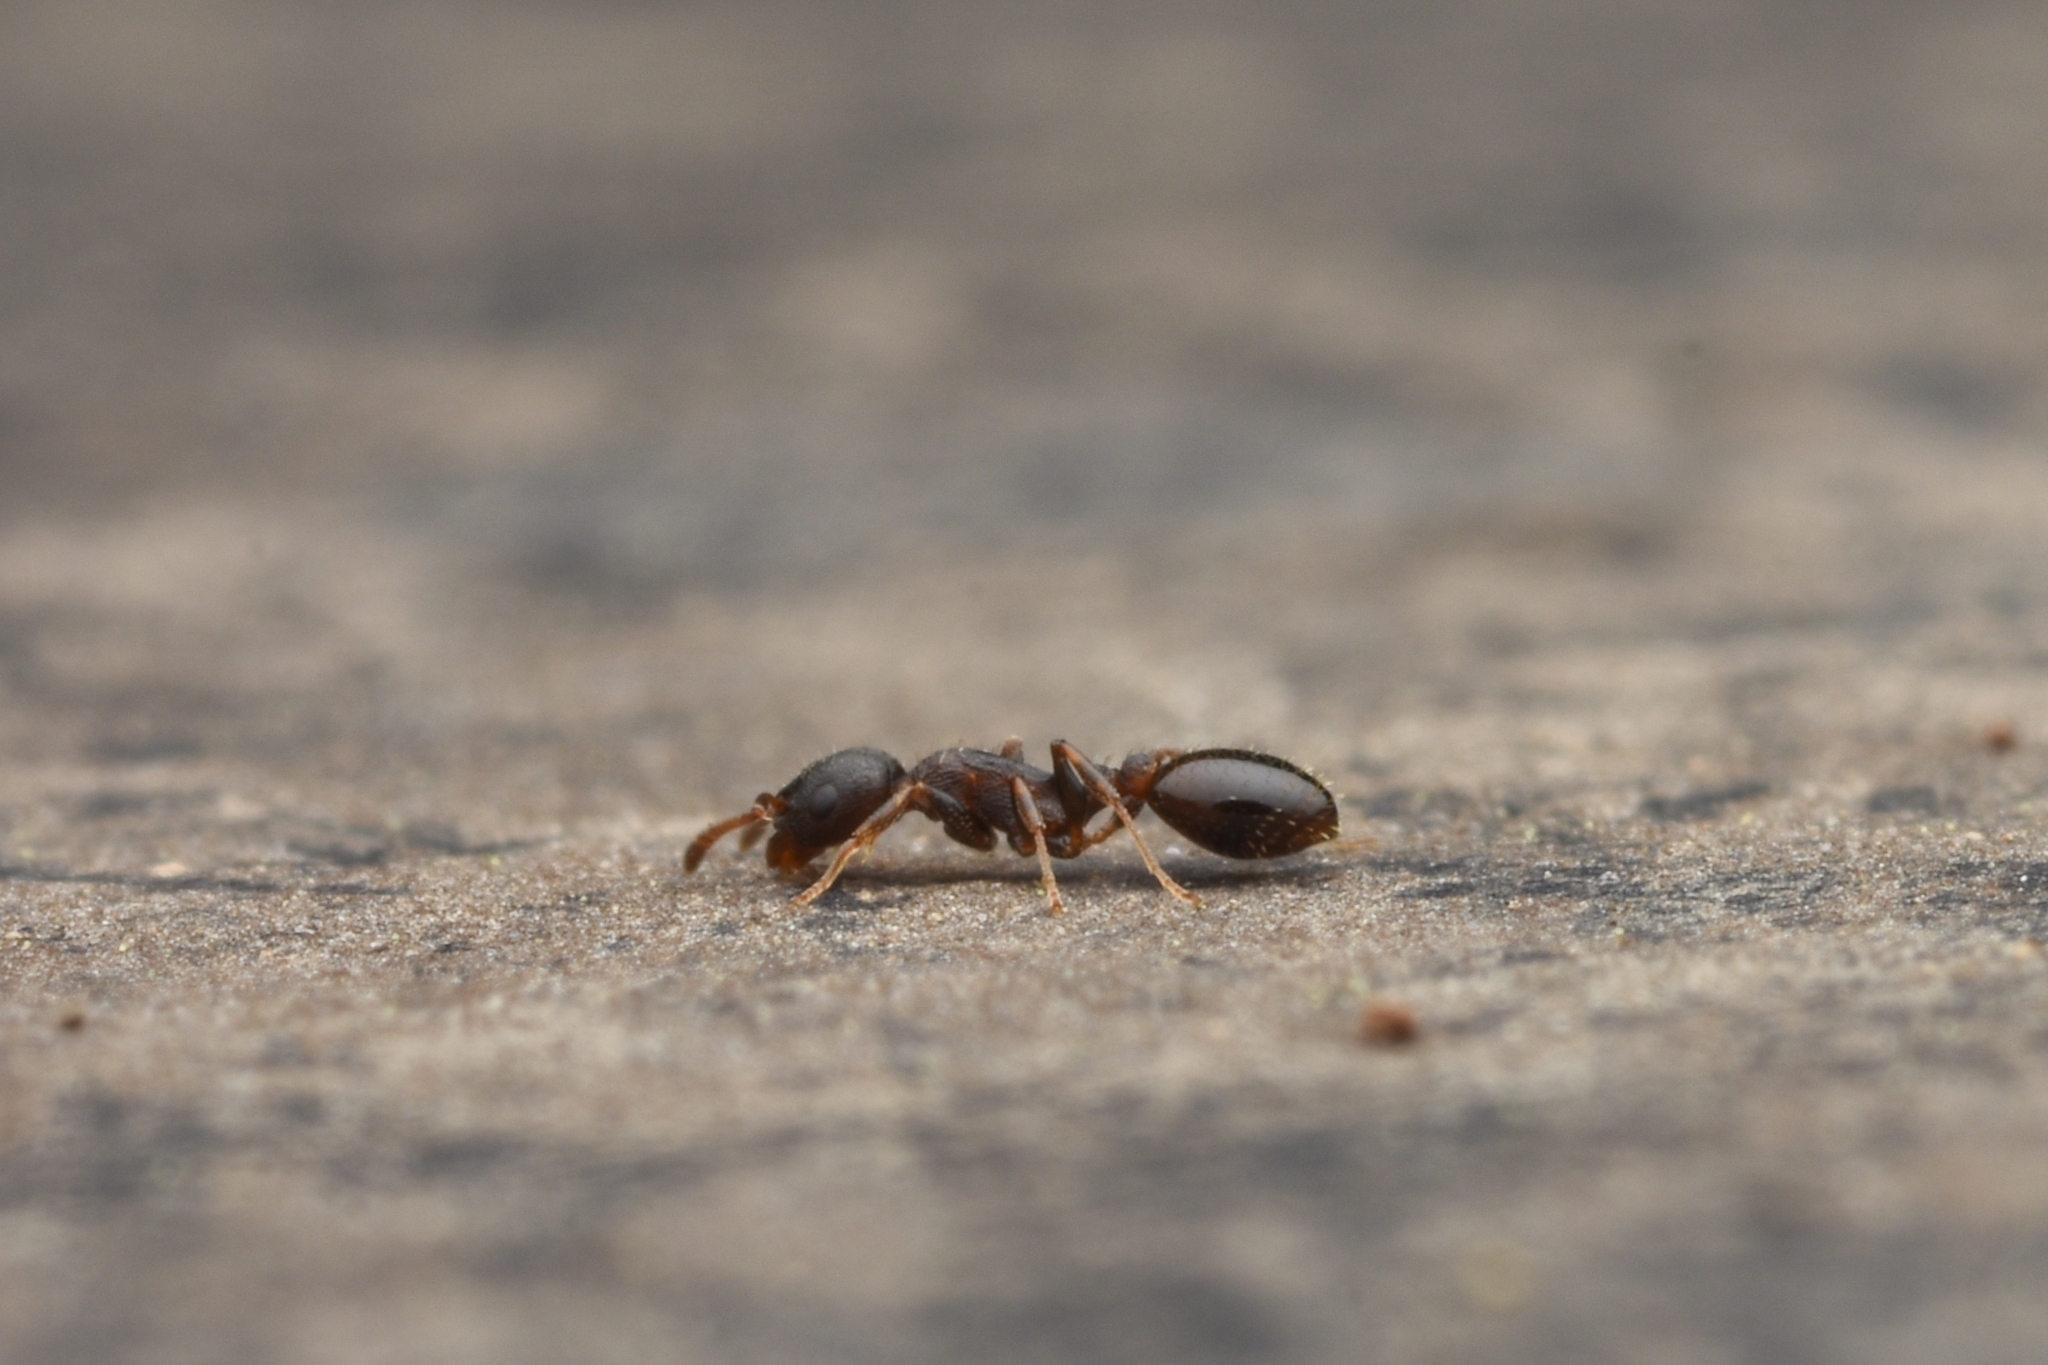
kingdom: Animalia
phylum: Arthropoda
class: Insecta
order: Hymenoptera
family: Formicidae
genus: Temnothorax
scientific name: Temnothorax
